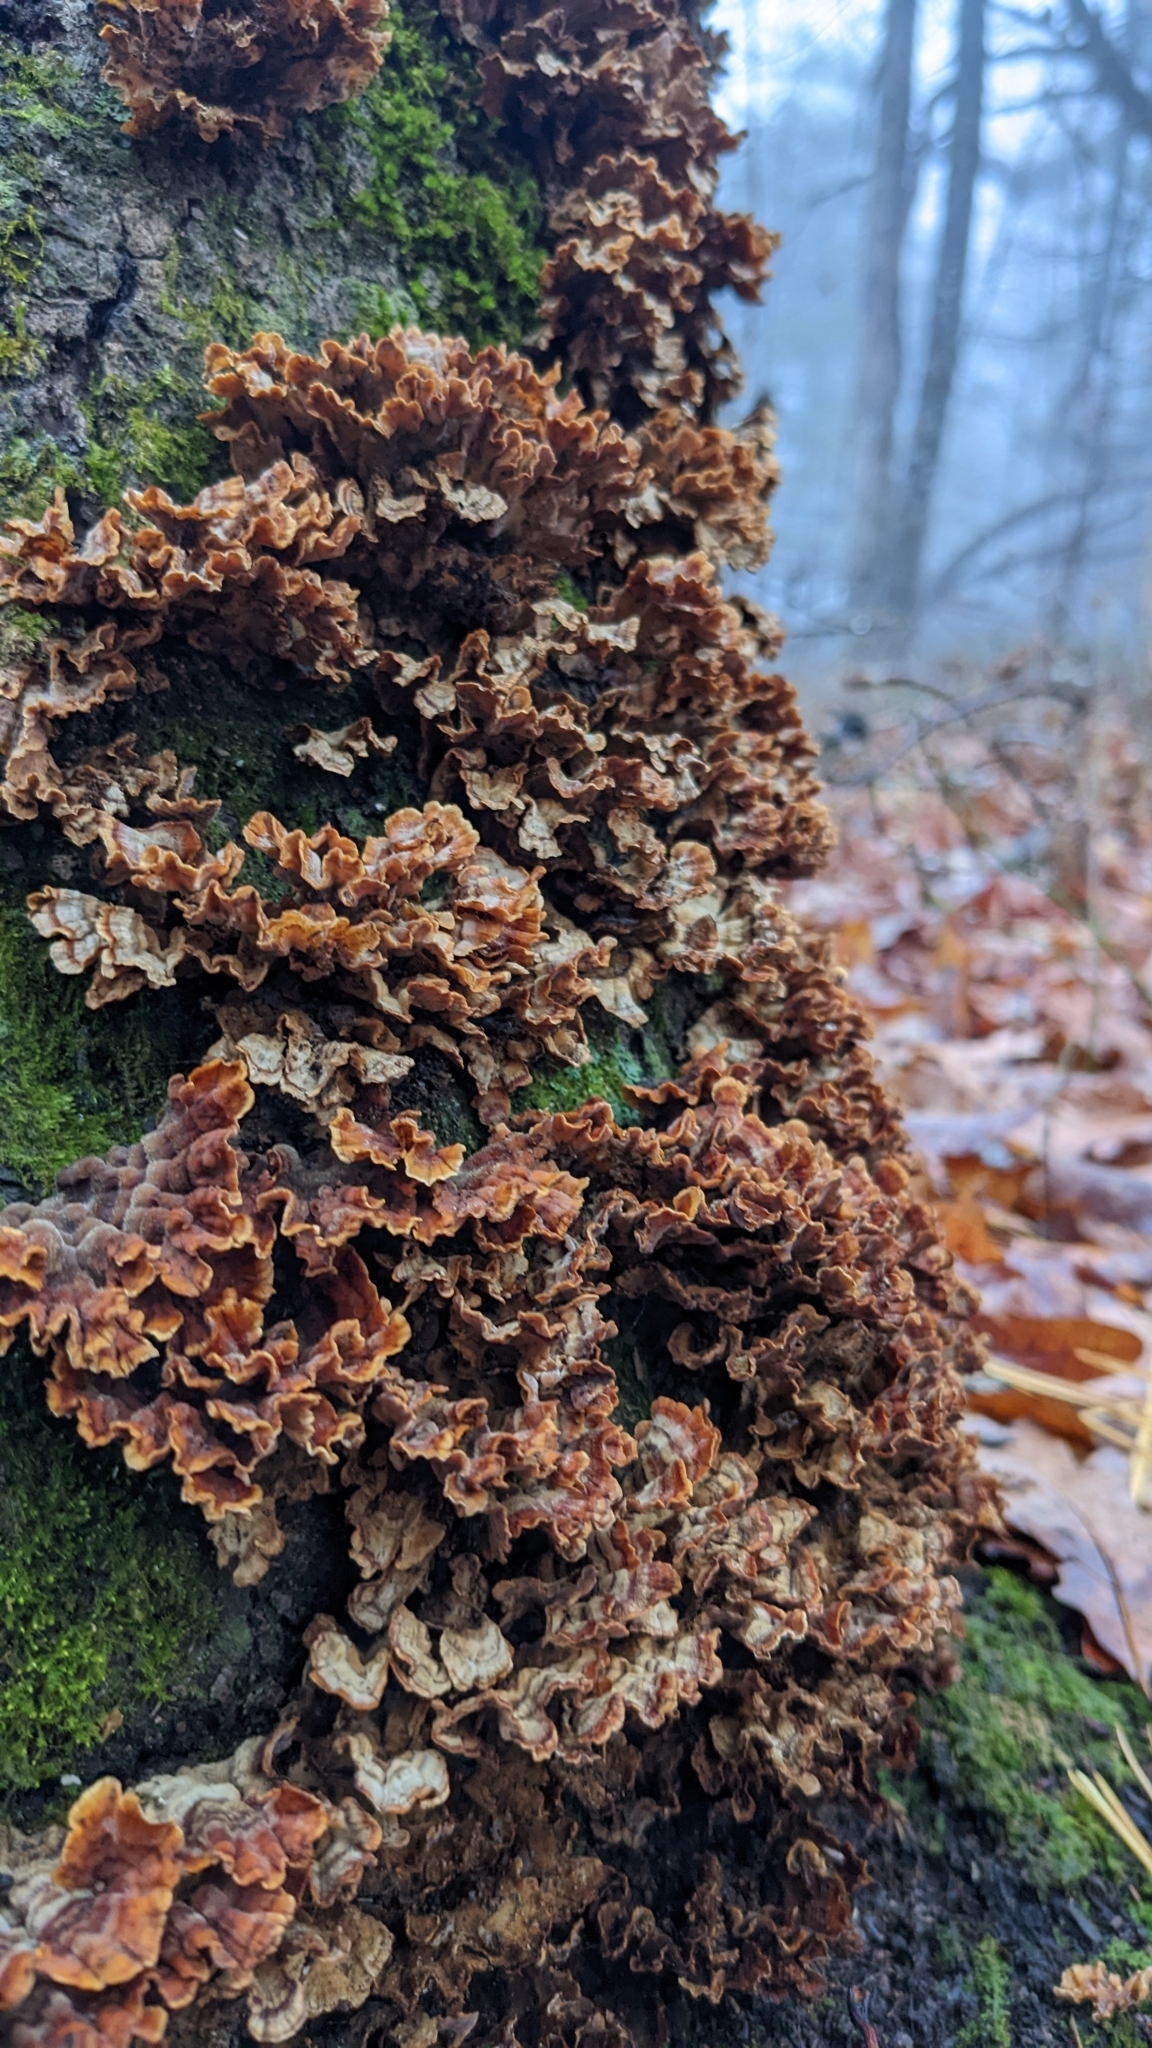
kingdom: Fungi
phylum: Basidiomycota
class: Agaricomycetes
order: Russulales
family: Stereaceae
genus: Stereum
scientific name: Stereum complicatum
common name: Crowded parchment
